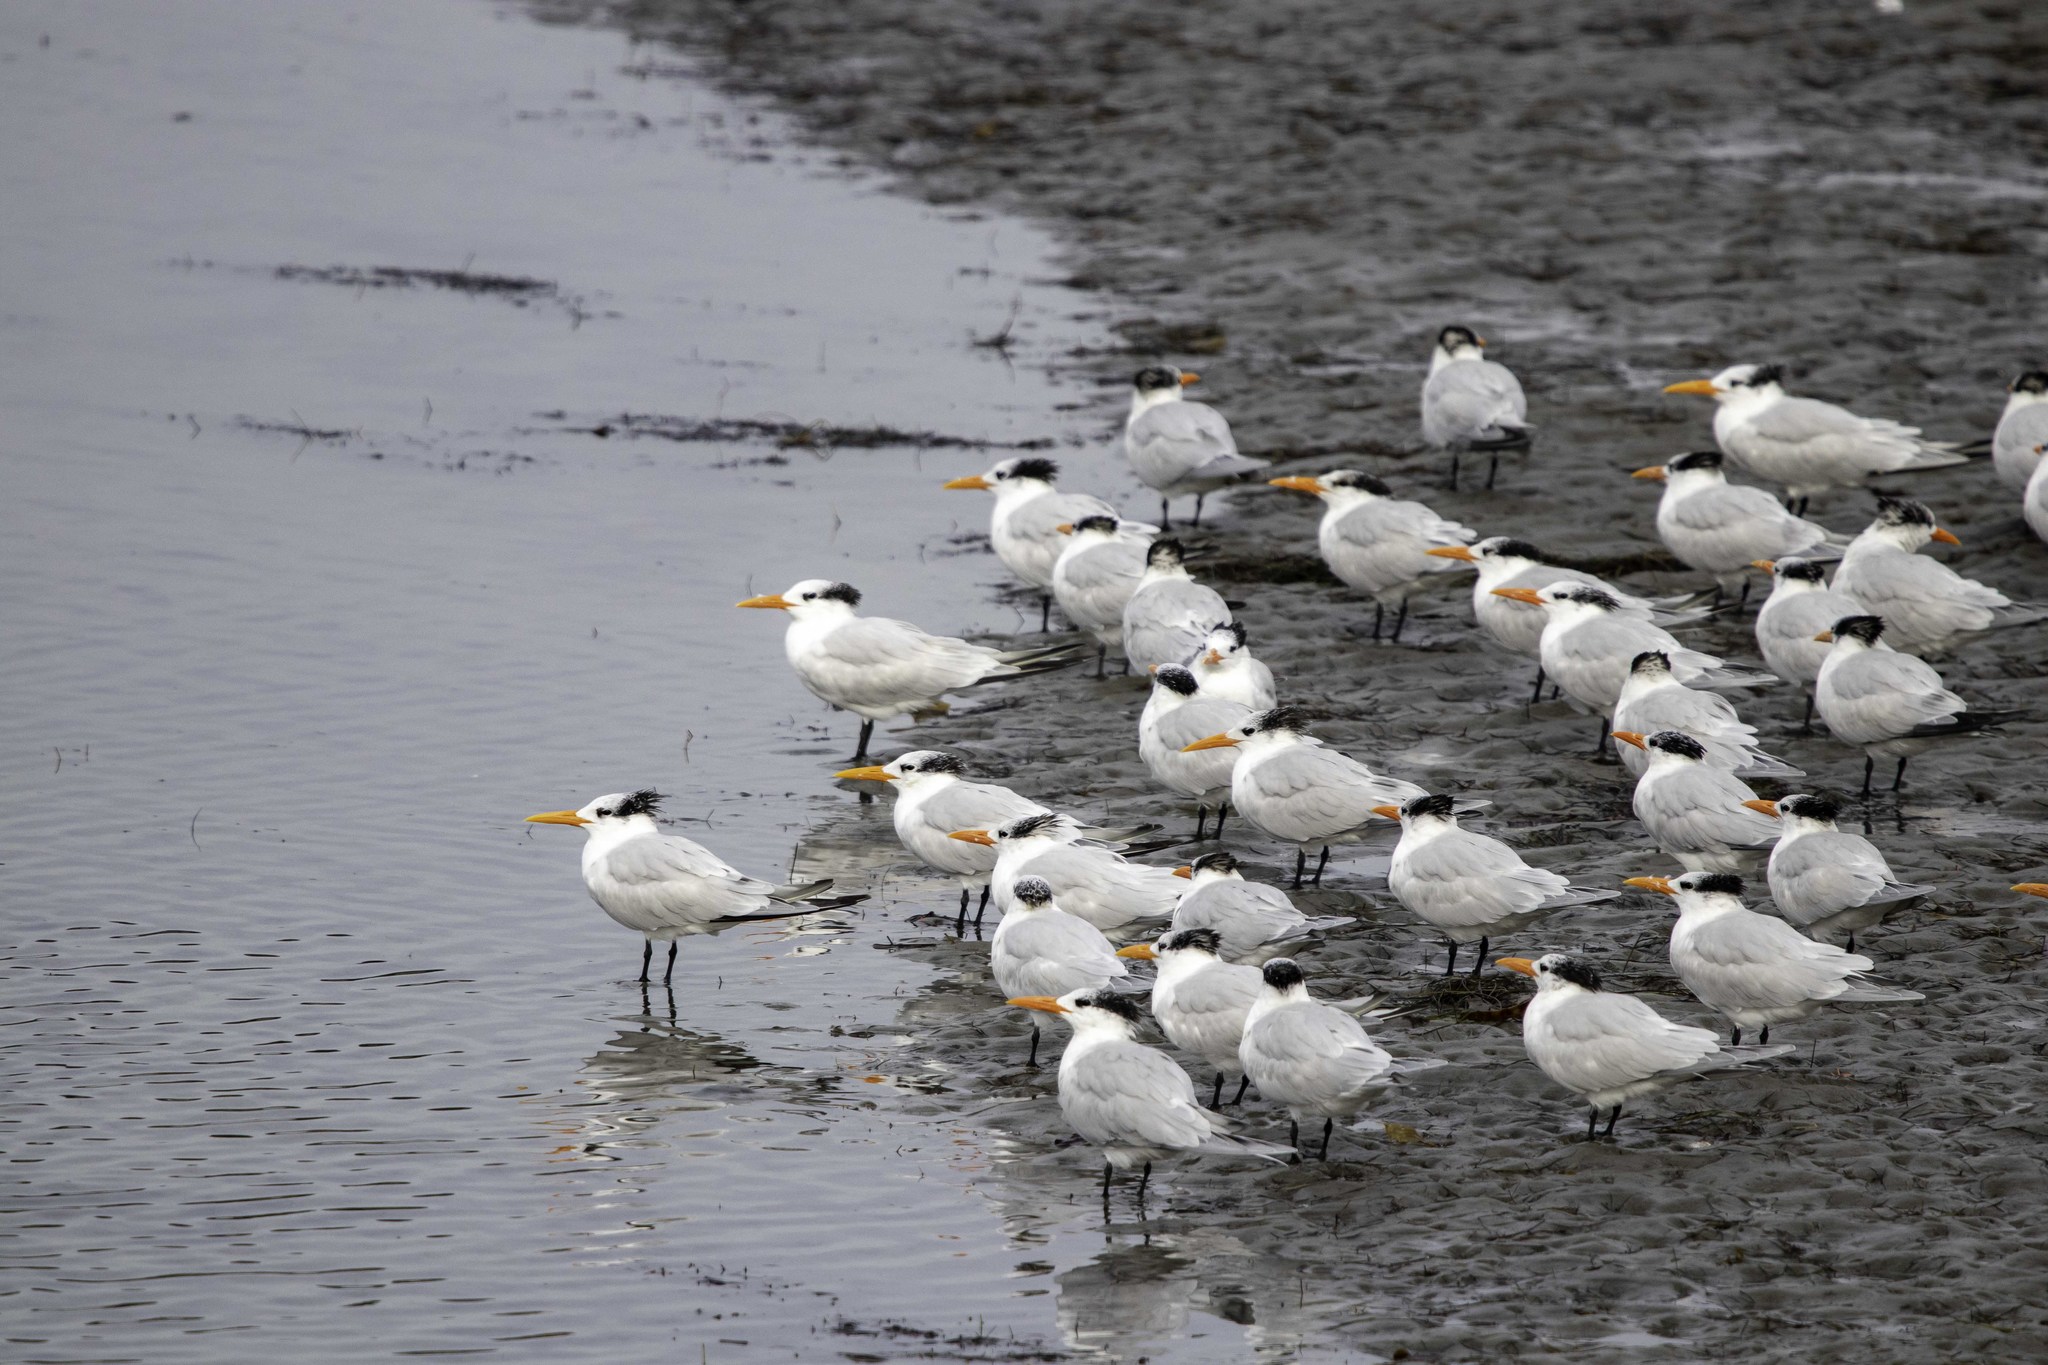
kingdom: Animalia
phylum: Chordata
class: Aves
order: Charadriiformes
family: Laridae
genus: Thalasseus
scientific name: Thalasseus maximus
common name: Royal tern
